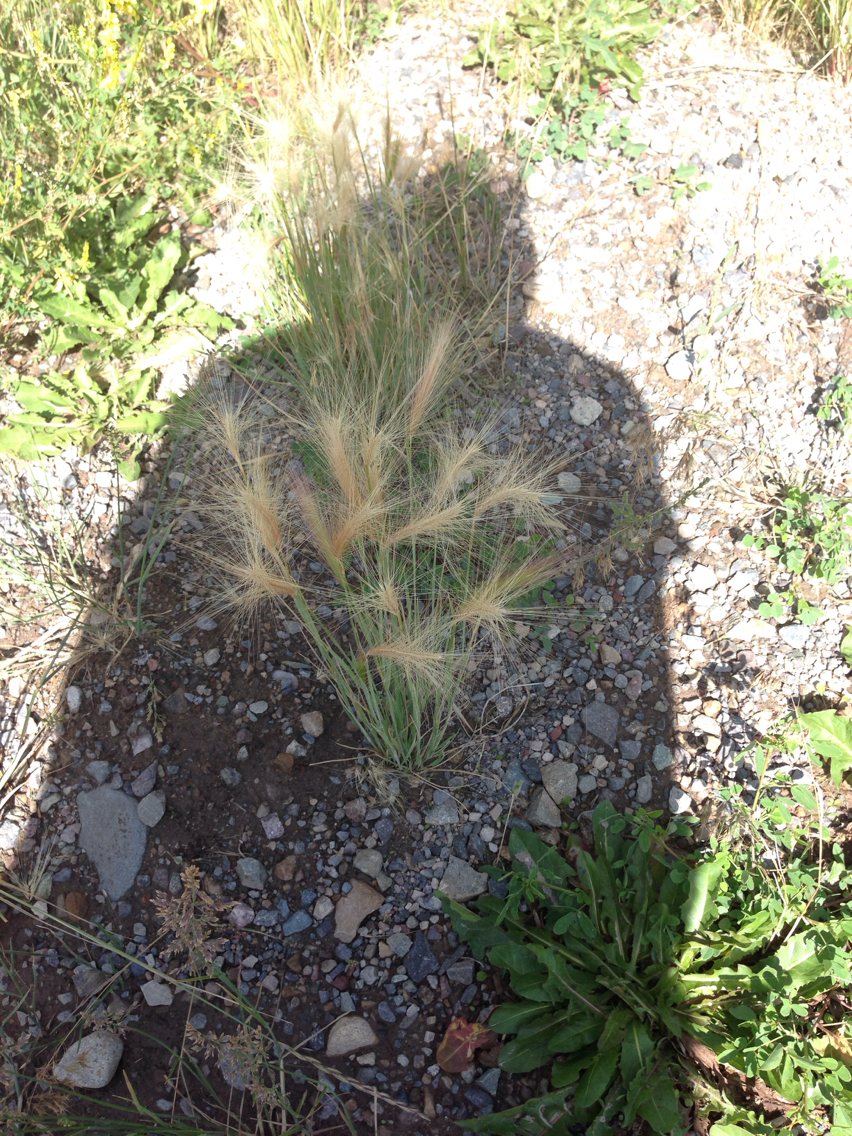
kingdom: Plantae
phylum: Tracheophyta
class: Liliopsida
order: Poales
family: Poaceae
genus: Elymus
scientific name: Elymus elymoides
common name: Bottlebrush squirreltail
